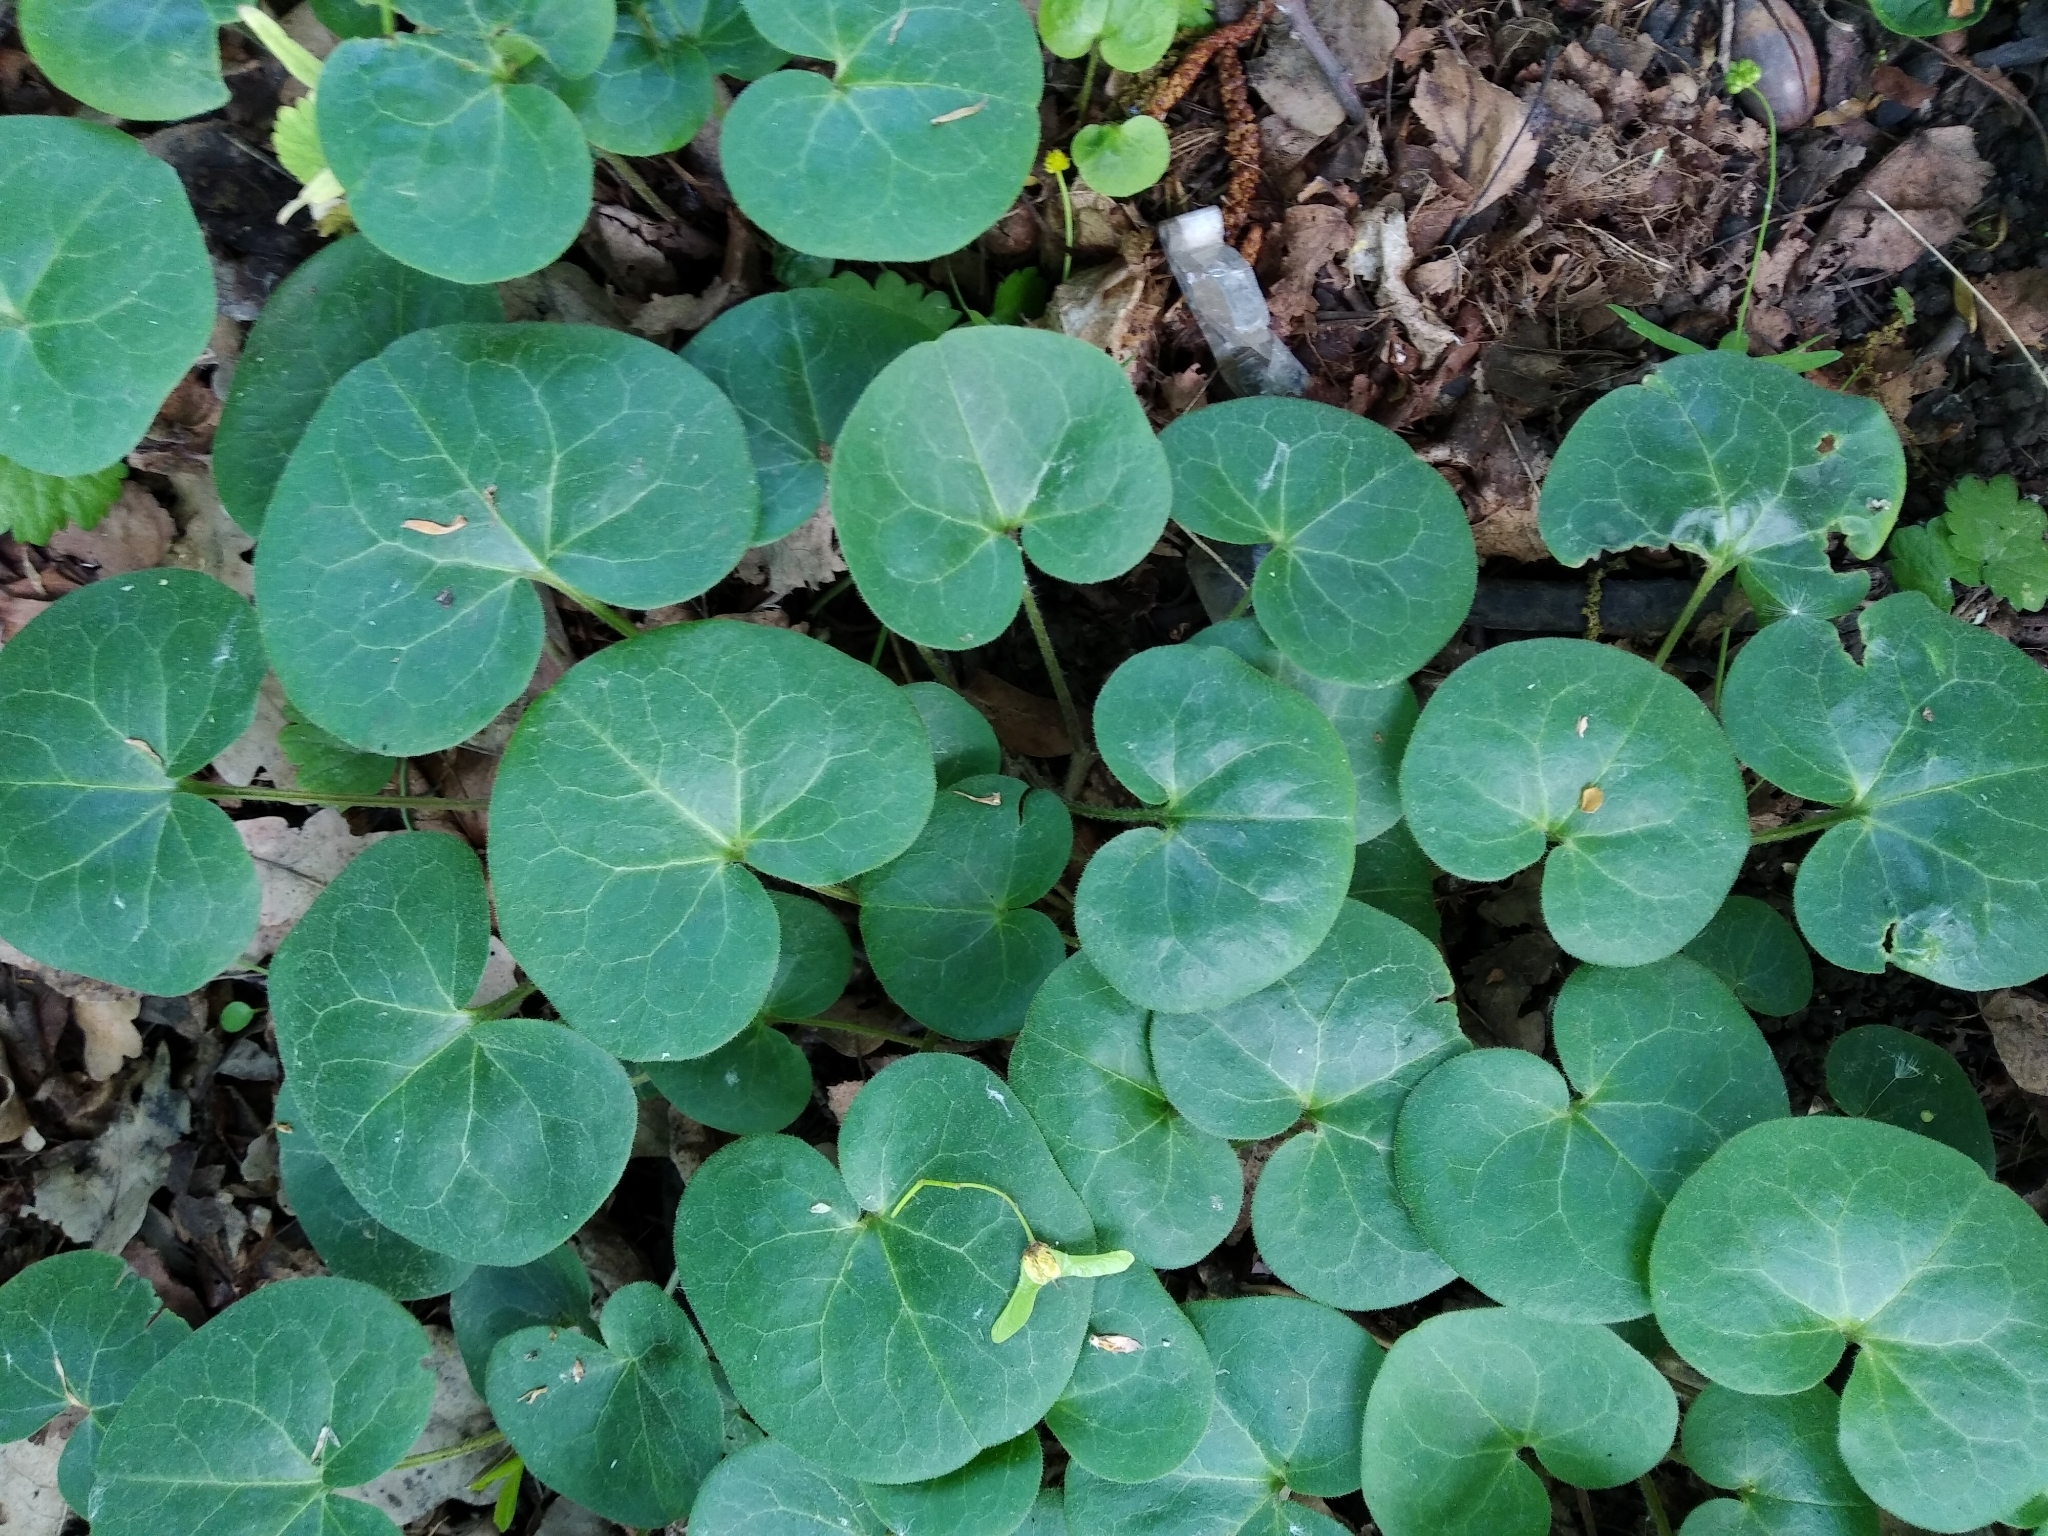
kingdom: Plantae
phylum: Tracheophyta
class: Magnoliopsida
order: Piperales
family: Aristolochiaceae
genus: Asarum
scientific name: Asarum europaeum
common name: Asarabacca
